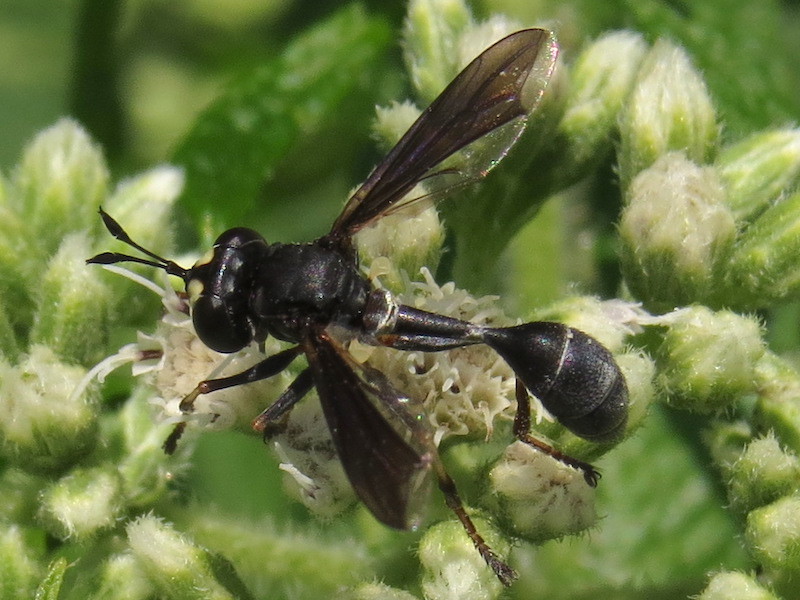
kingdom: Animalia
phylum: Arthropoda
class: Insecta
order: Diptera
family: Conopidae
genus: Physocephala
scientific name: Physocephala tibialis
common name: Common eastern physocephala
